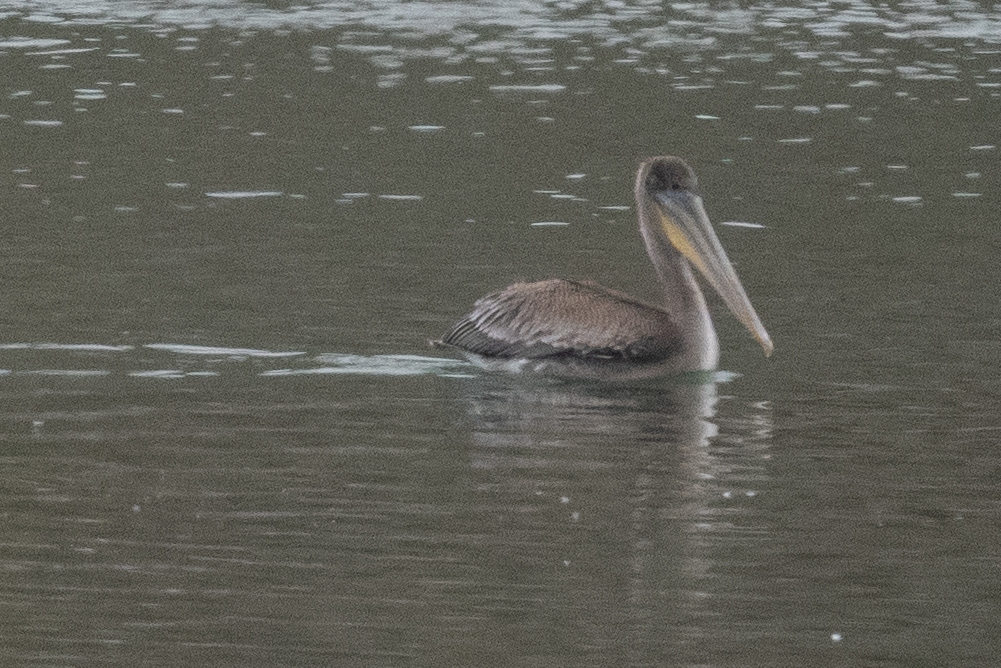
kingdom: Animalia
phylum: Chordata
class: Aves
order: Pelecaniformes
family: Pelecanidae
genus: Pelecanus
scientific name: Pelecanus occidentalis
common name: Brown pelican
